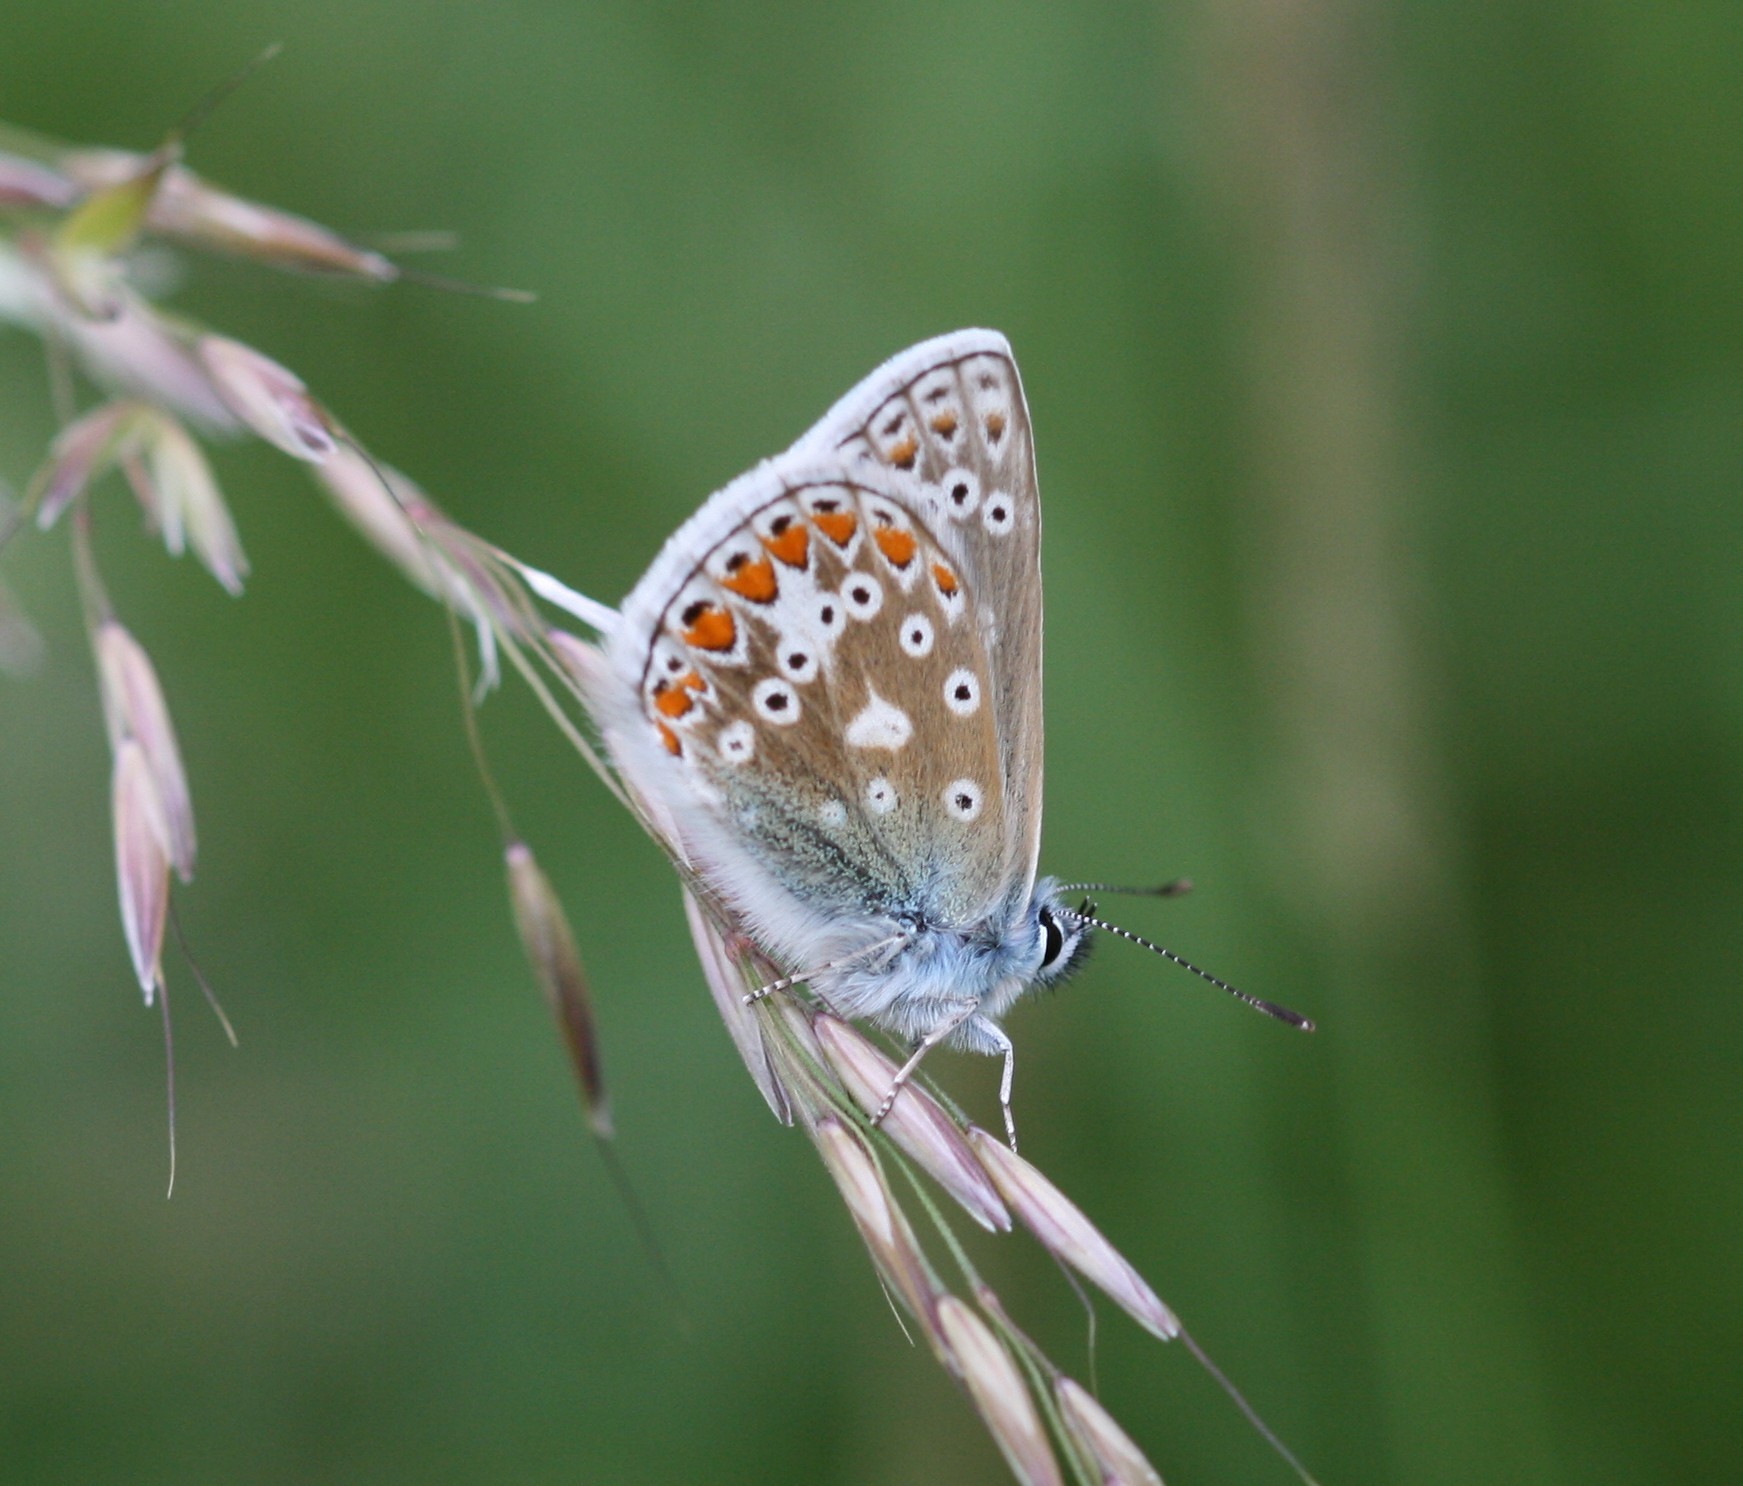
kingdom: Animalia
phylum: Arthropoda
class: Insecta
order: Lepidoptera
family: Lycaenidae
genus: Polyommatus
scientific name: Polyommatus icarus
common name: Common blue
